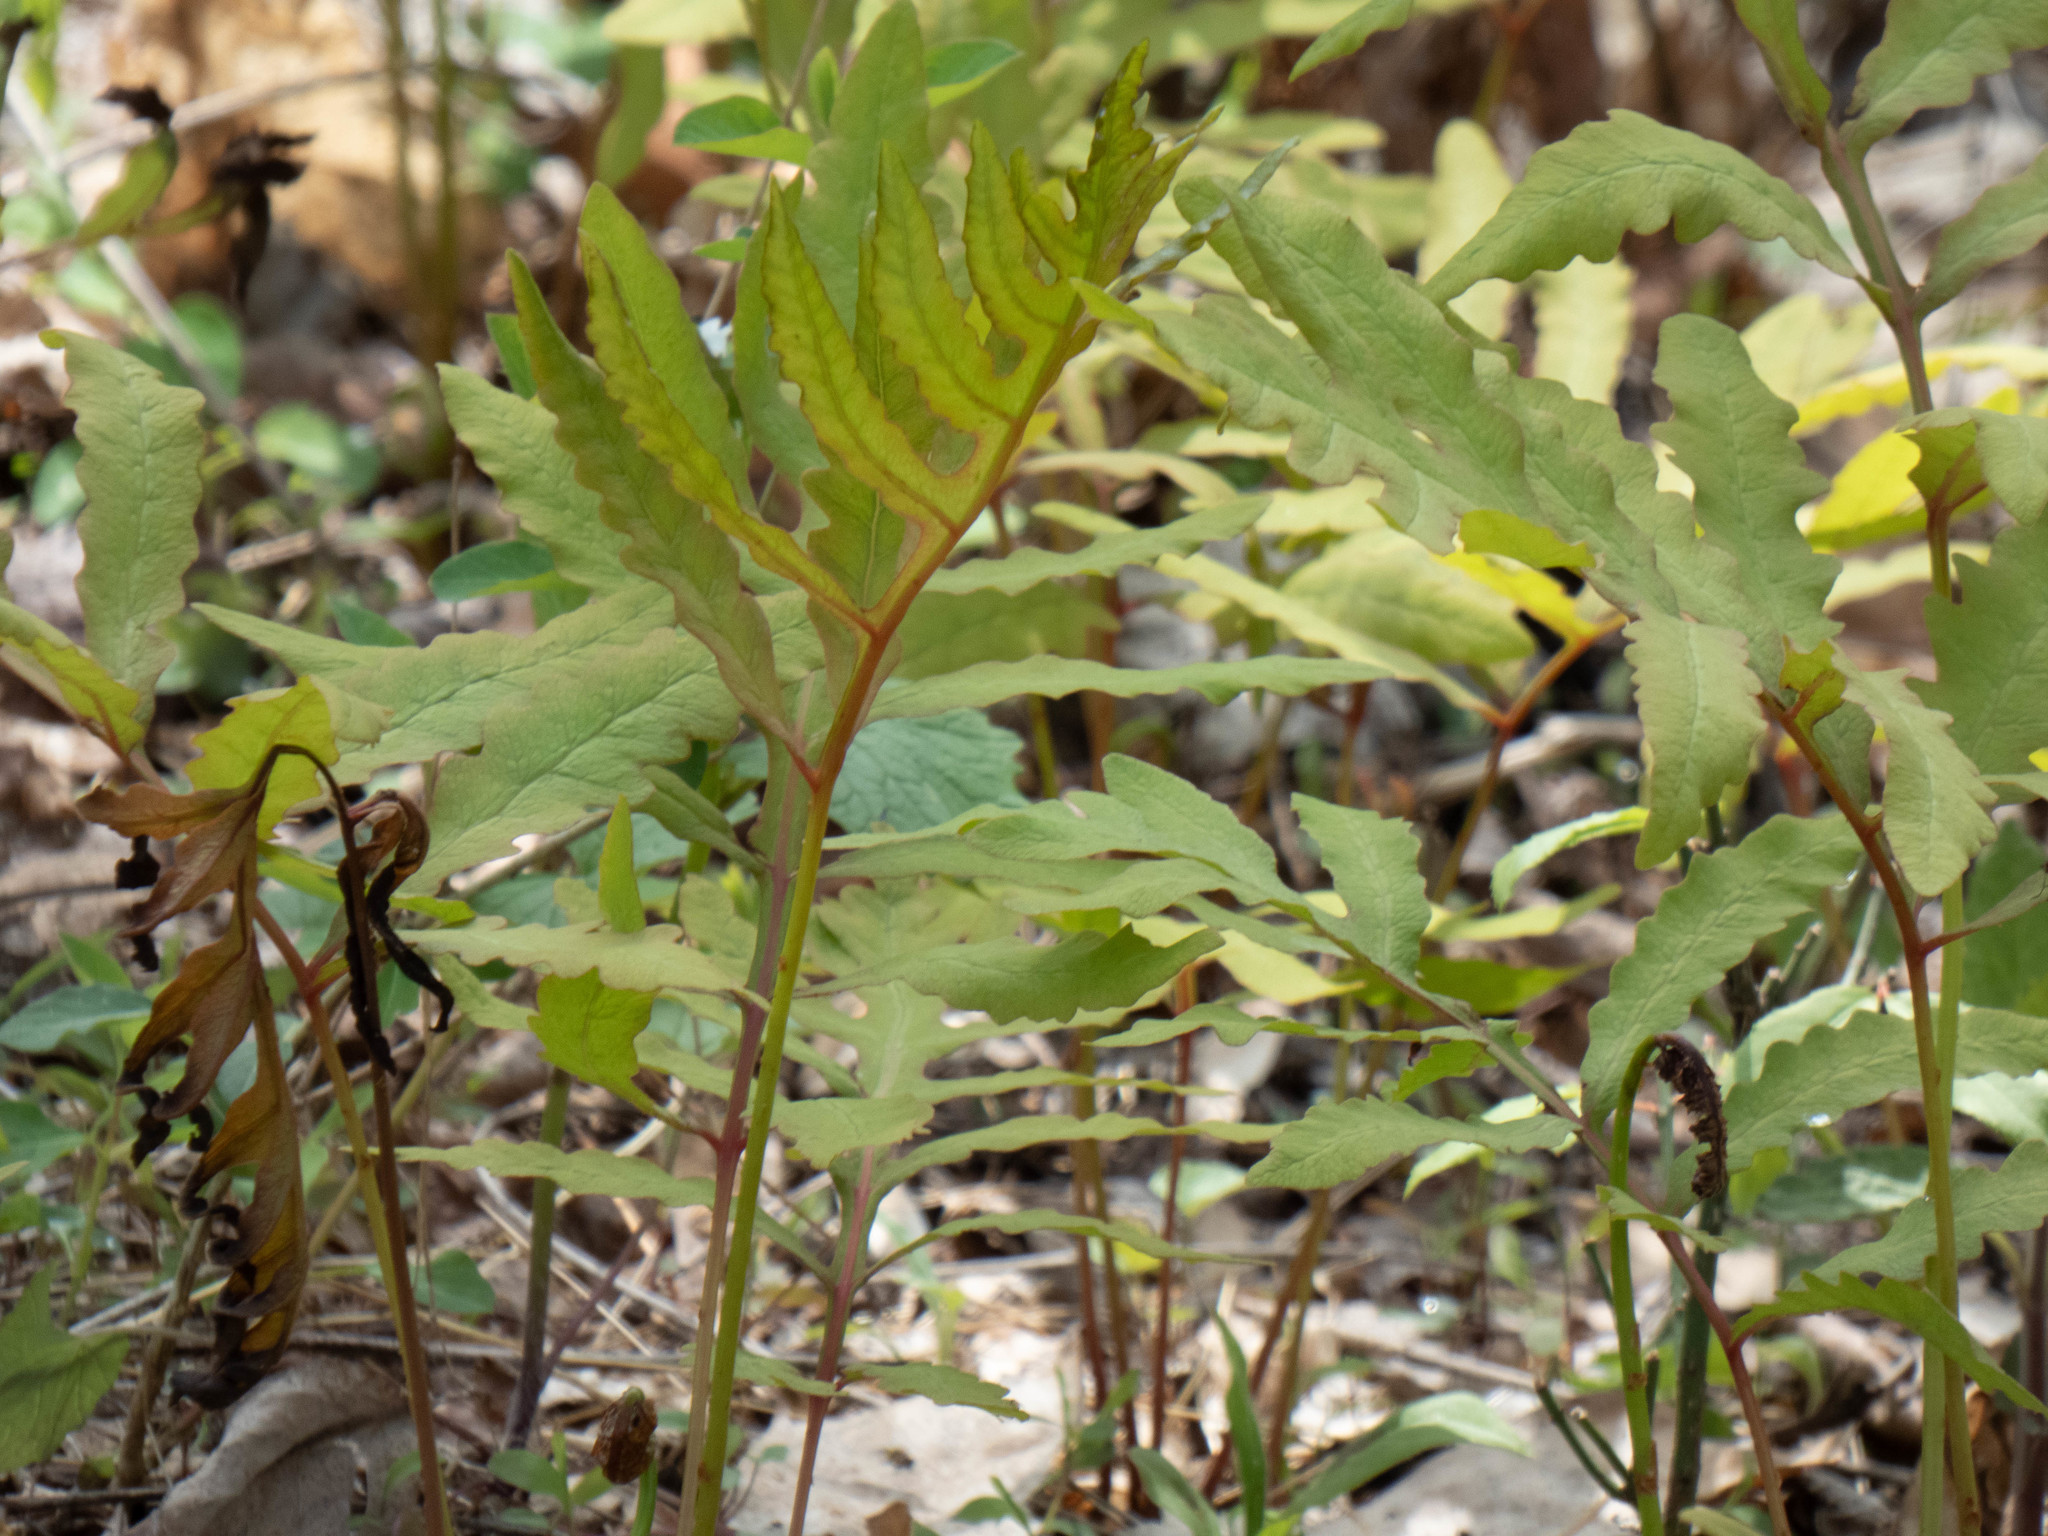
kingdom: Plantae
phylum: Tracheophyta
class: Polypodiopsida
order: Polypodiales
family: Onocleaceae
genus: Onoclea
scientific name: Onoclea sensibilis
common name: Sensitive fern
